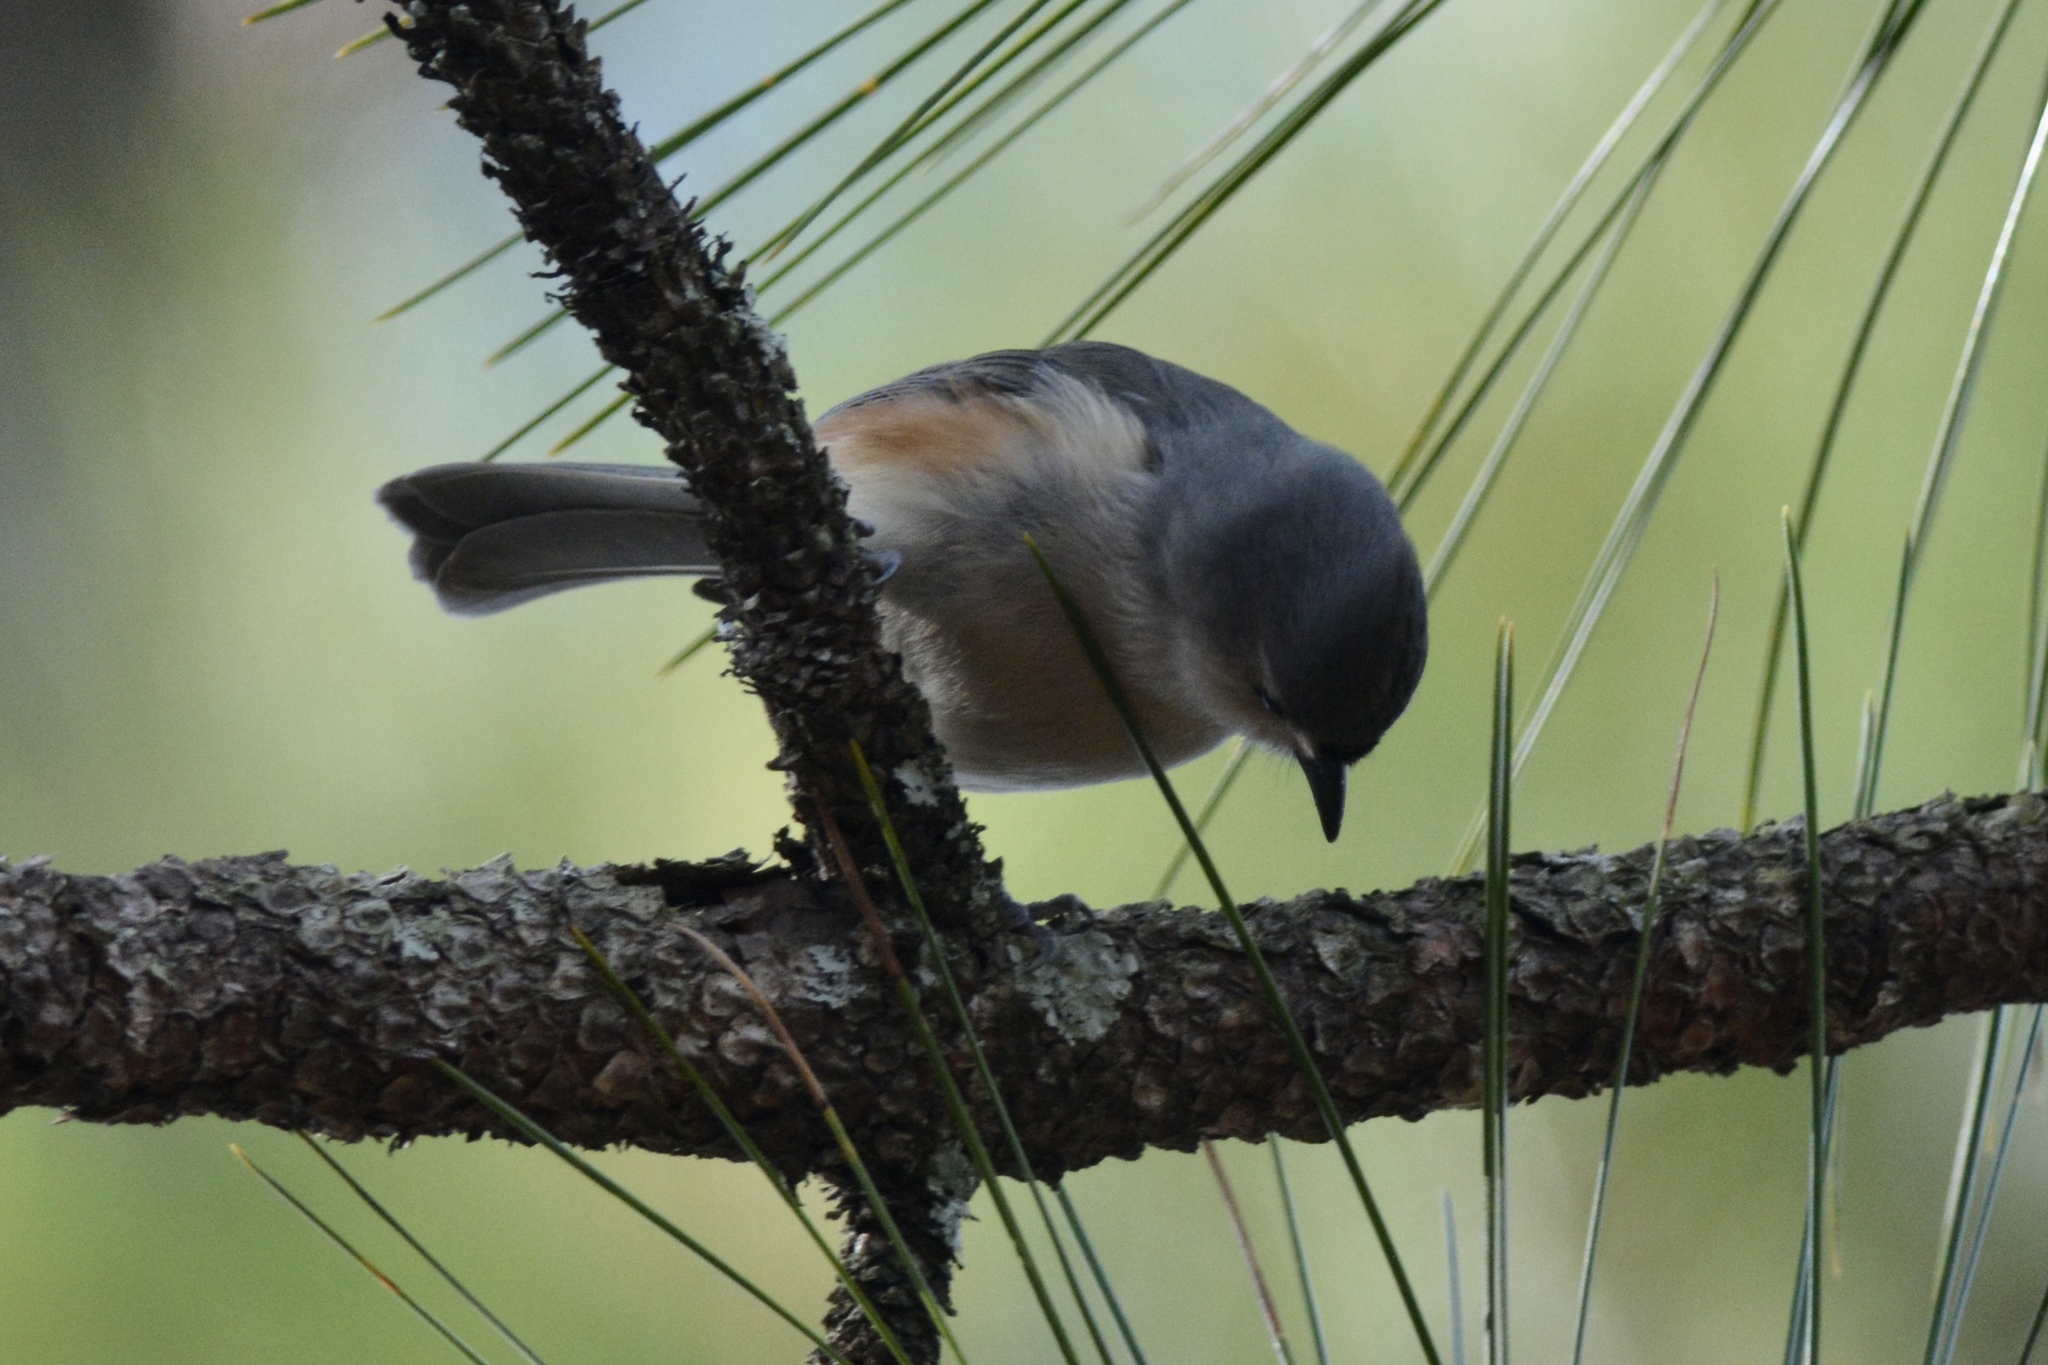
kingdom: Animalia
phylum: Chordata
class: Aves
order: Passeriformes
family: Paridae
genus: Baeolophus
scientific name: Baeolophus bicolor
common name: Tufted titmouse
